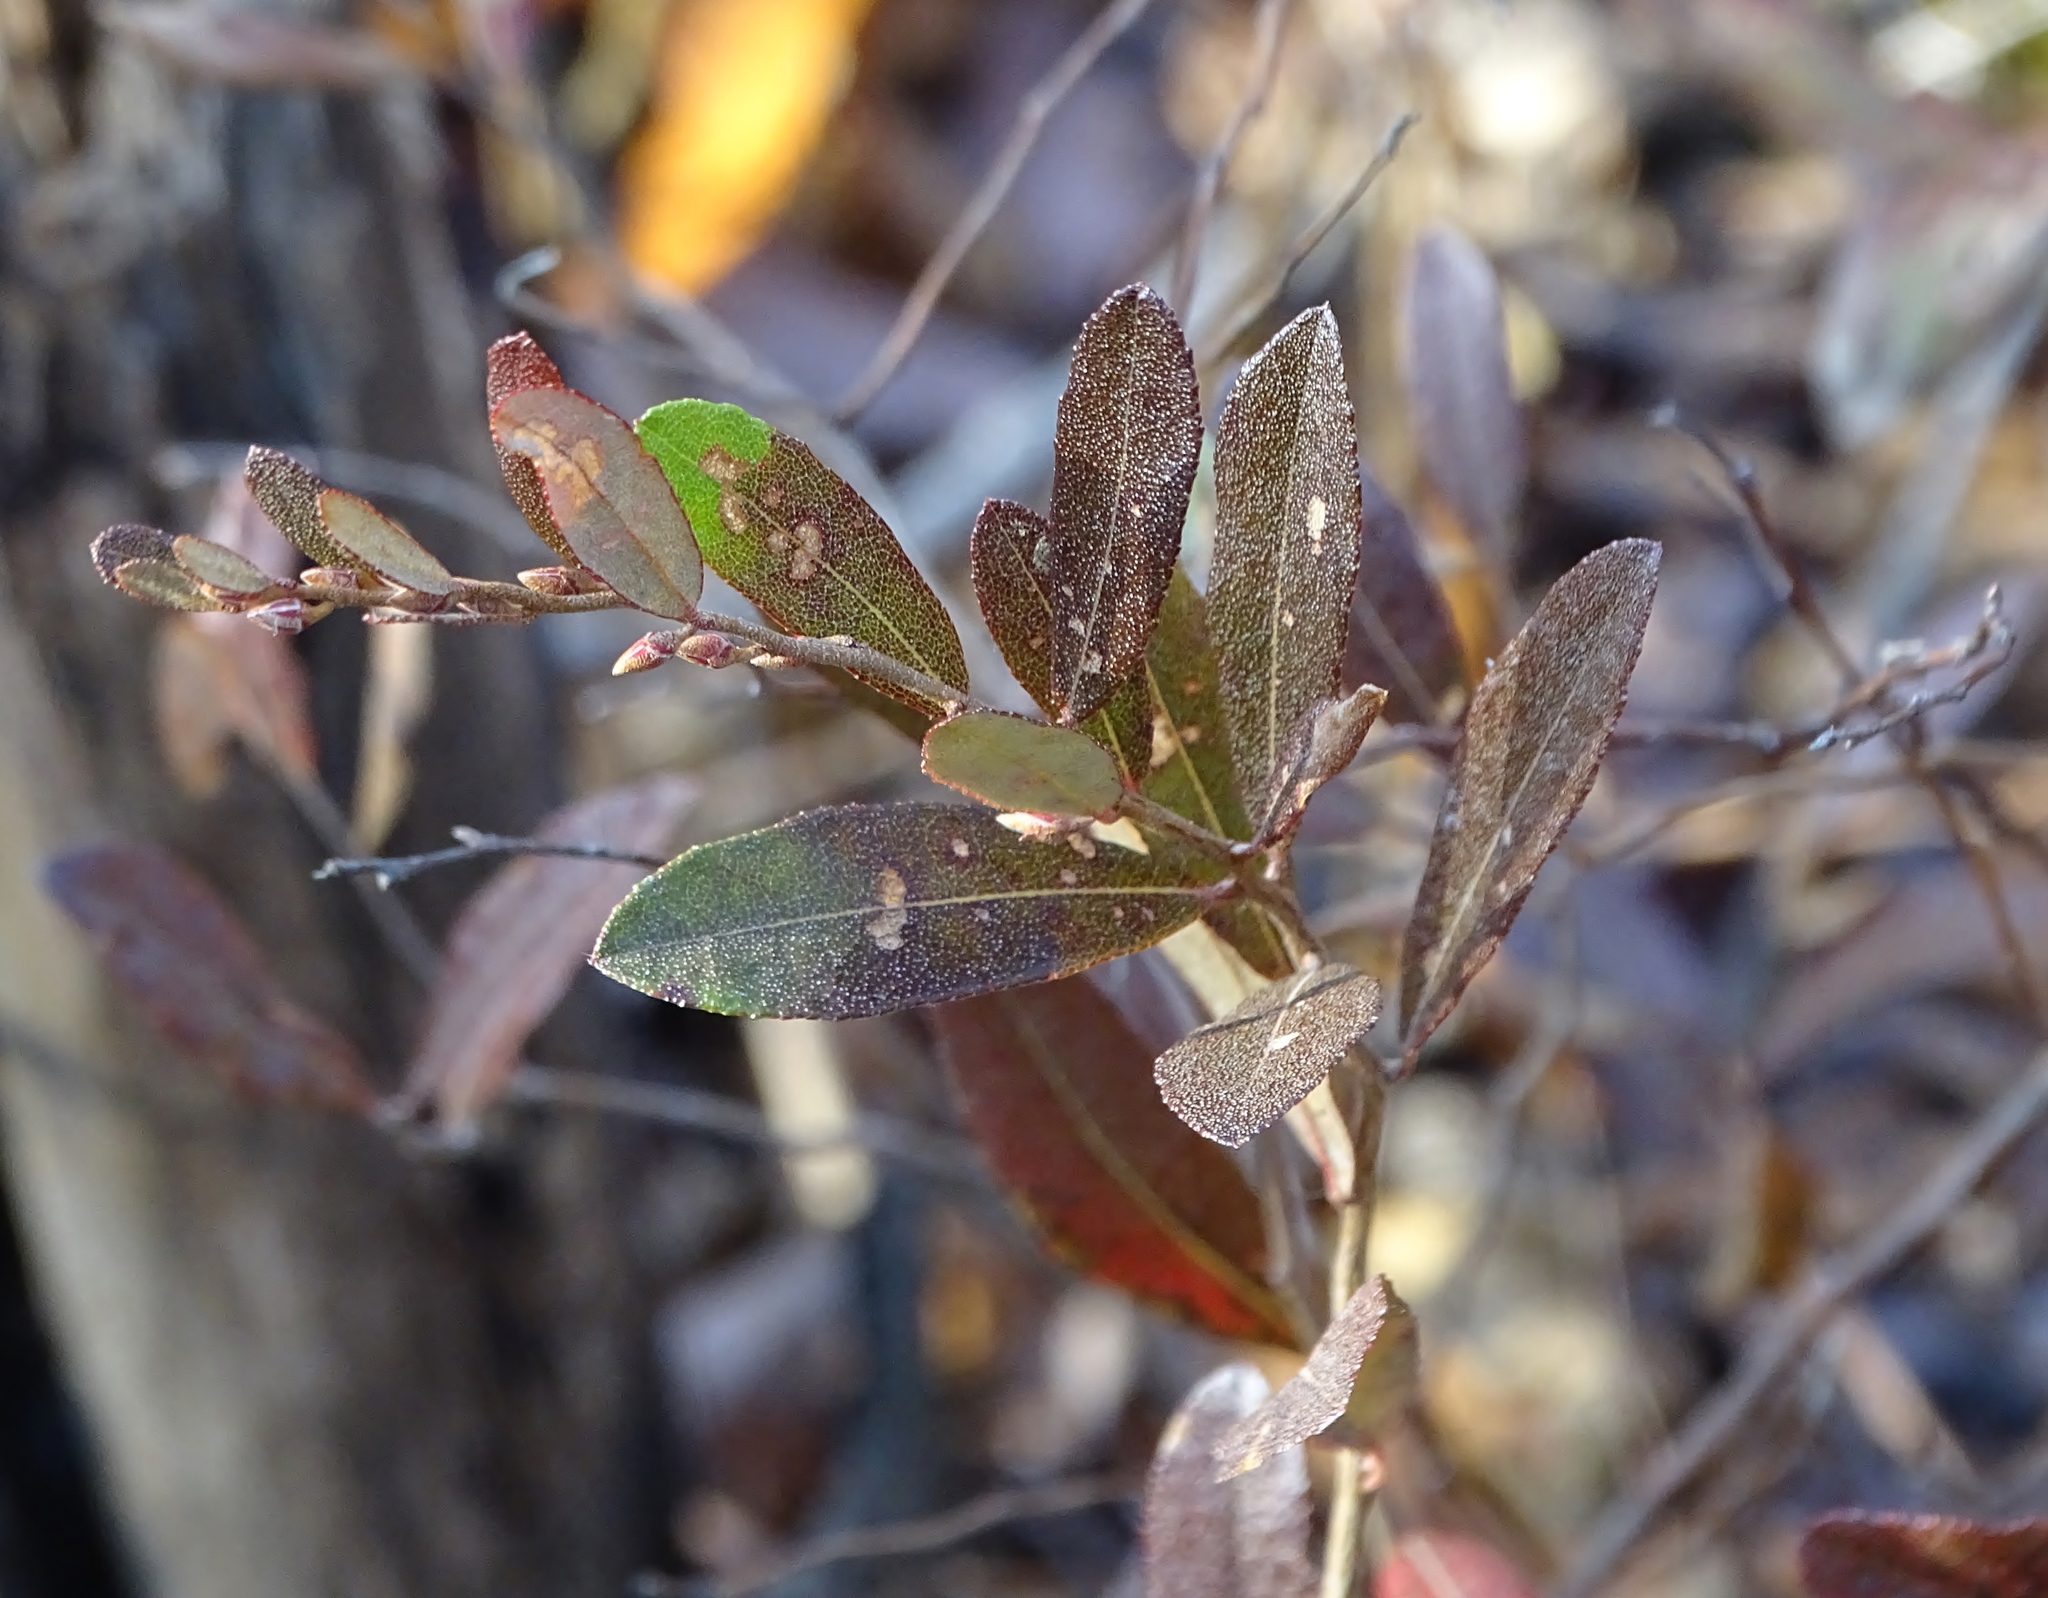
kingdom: Plantae
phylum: Tracheophyta
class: Magnoliopsida
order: Ericales
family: Ericaceae
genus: Chamaedaphne
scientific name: Chamaedaphne calyculata
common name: Leatherleaf
